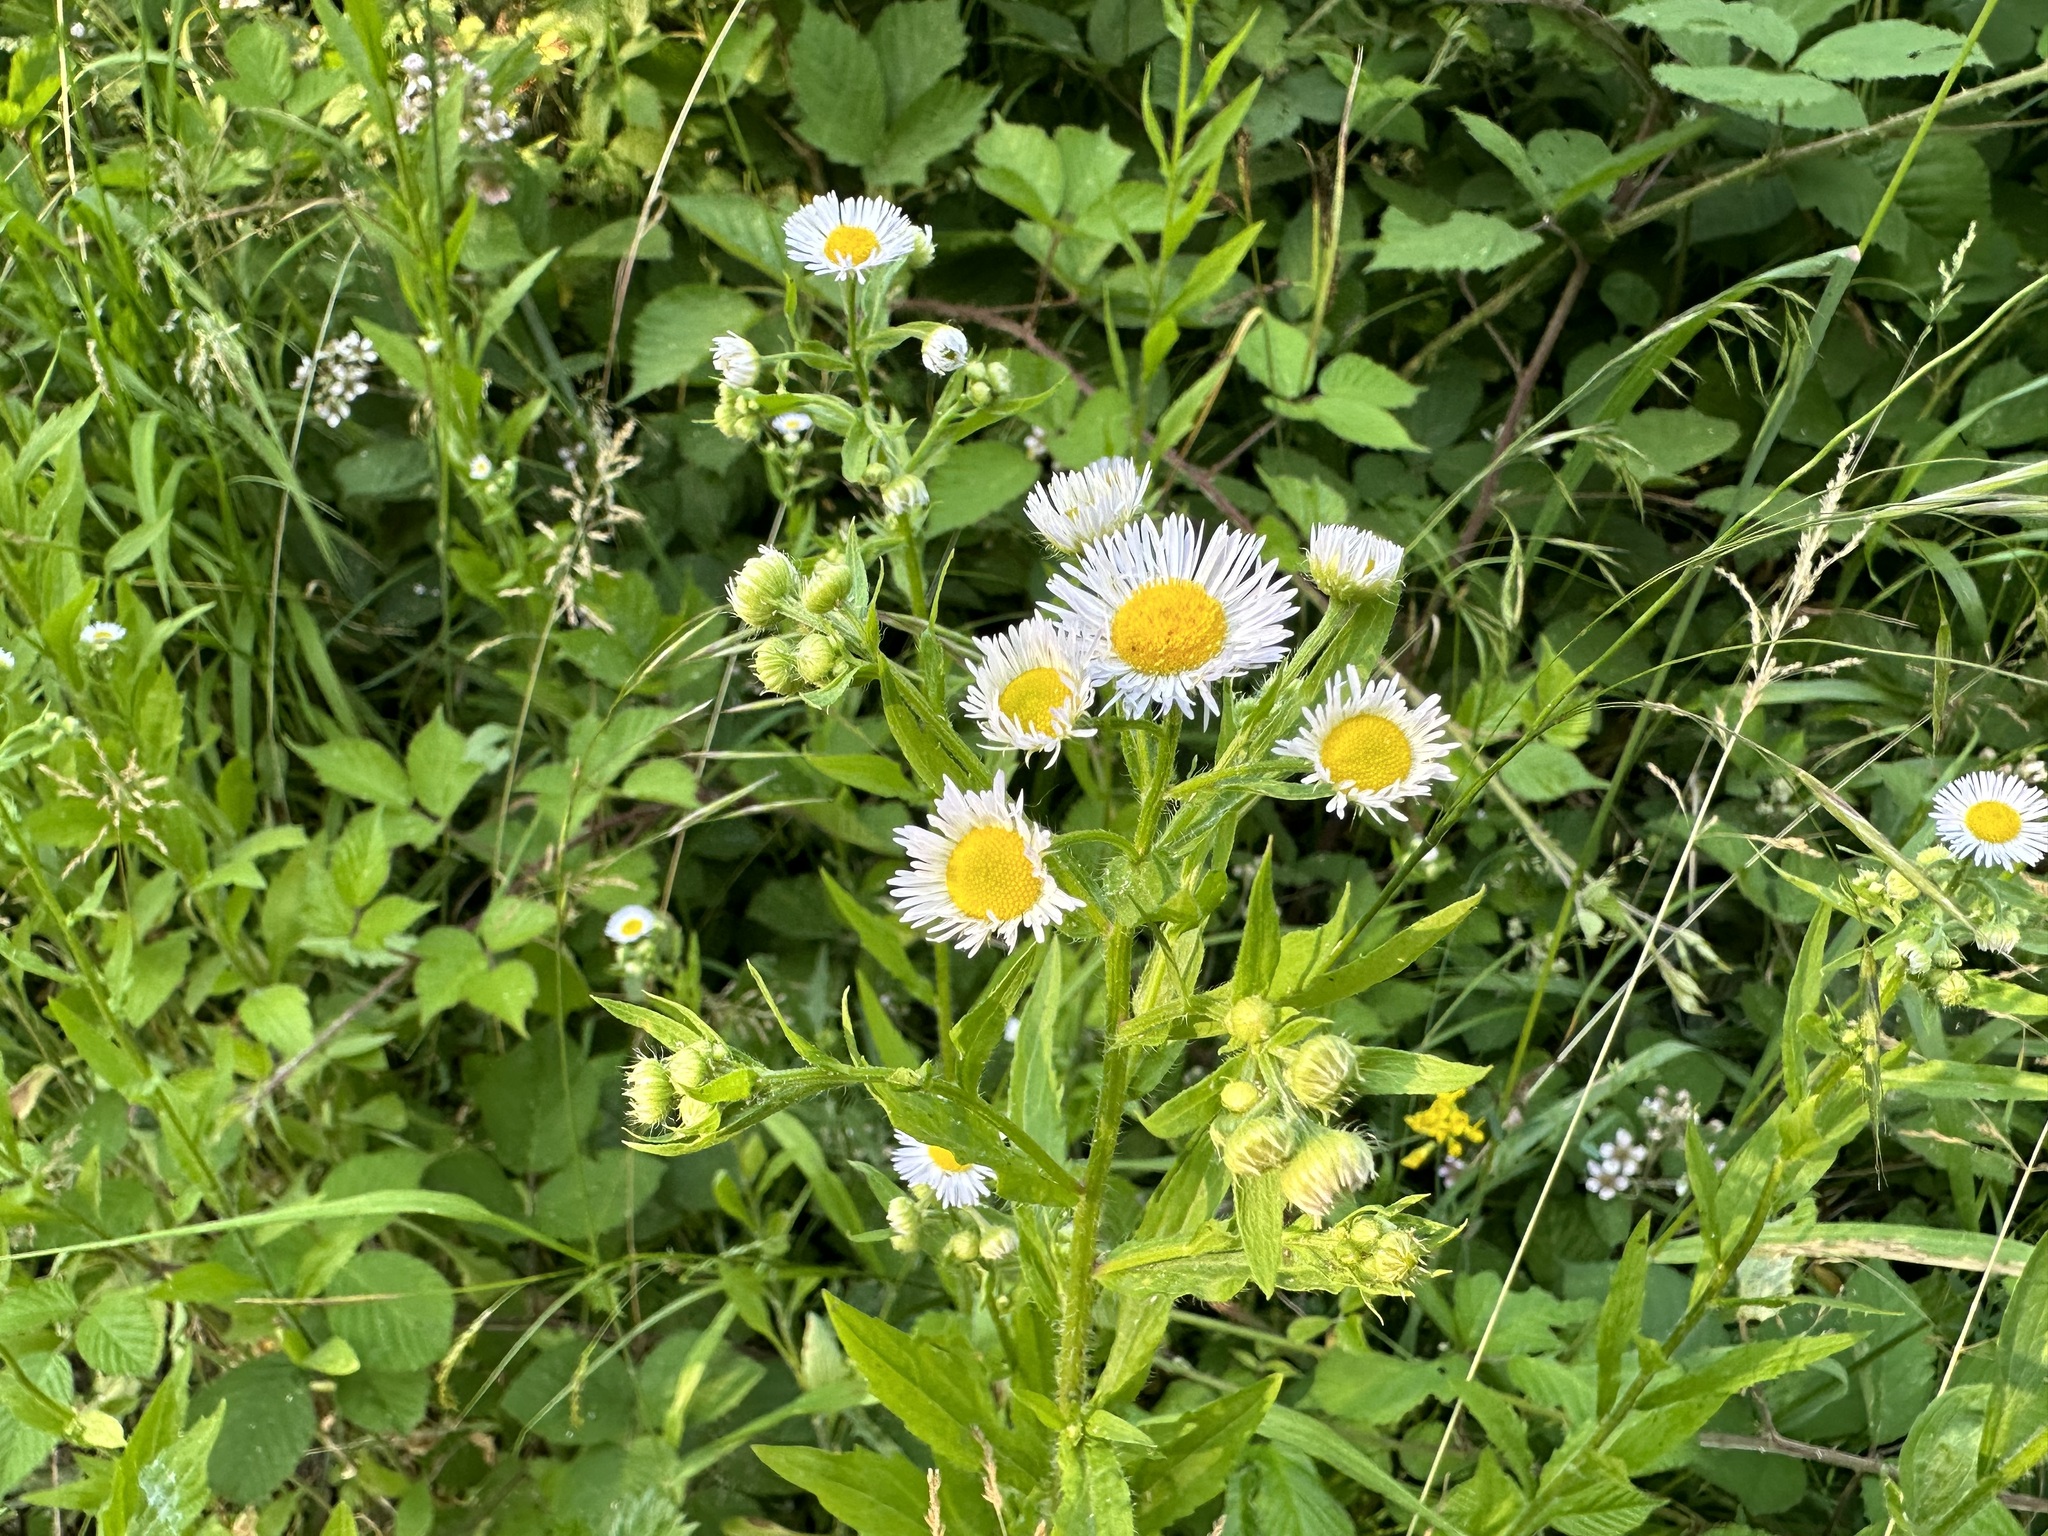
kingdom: Plantae
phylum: Tracheophyta
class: Magnoliopsida
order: Asterales
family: Asteraceae
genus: Erigeron
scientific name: Erigeron annuus
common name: Tall fleabane
